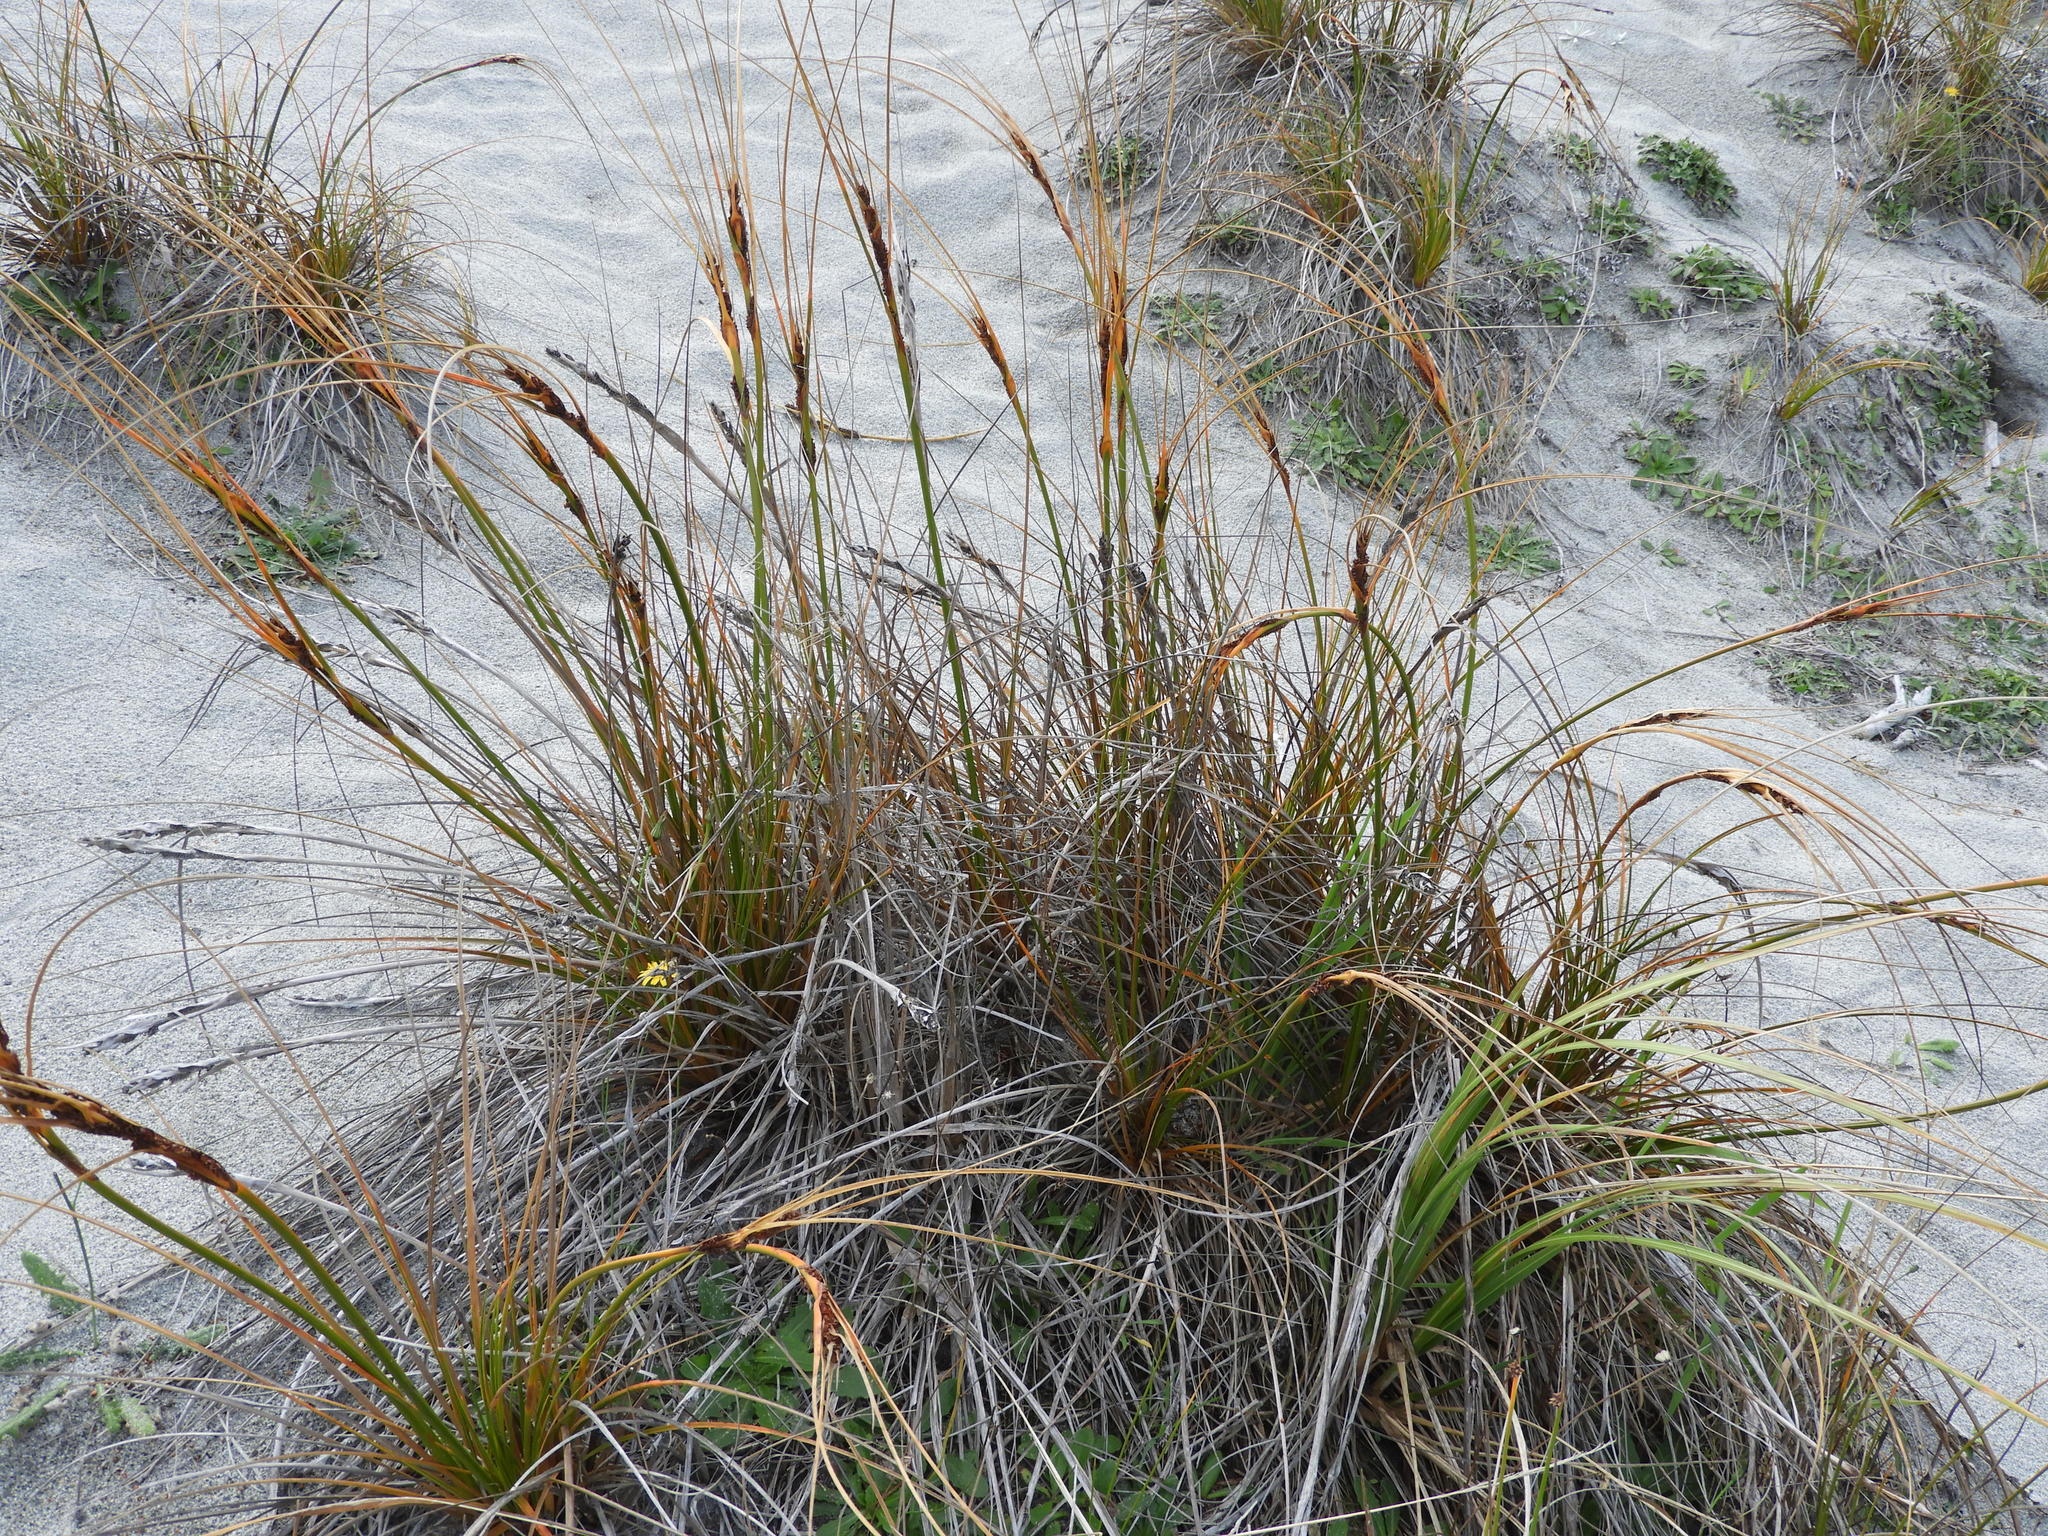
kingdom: Plantae
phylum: Tracheophyta
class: Liliopsida
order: Poales
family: Cyperaceae
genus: Ficinia
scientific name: Ficinia spiralis
